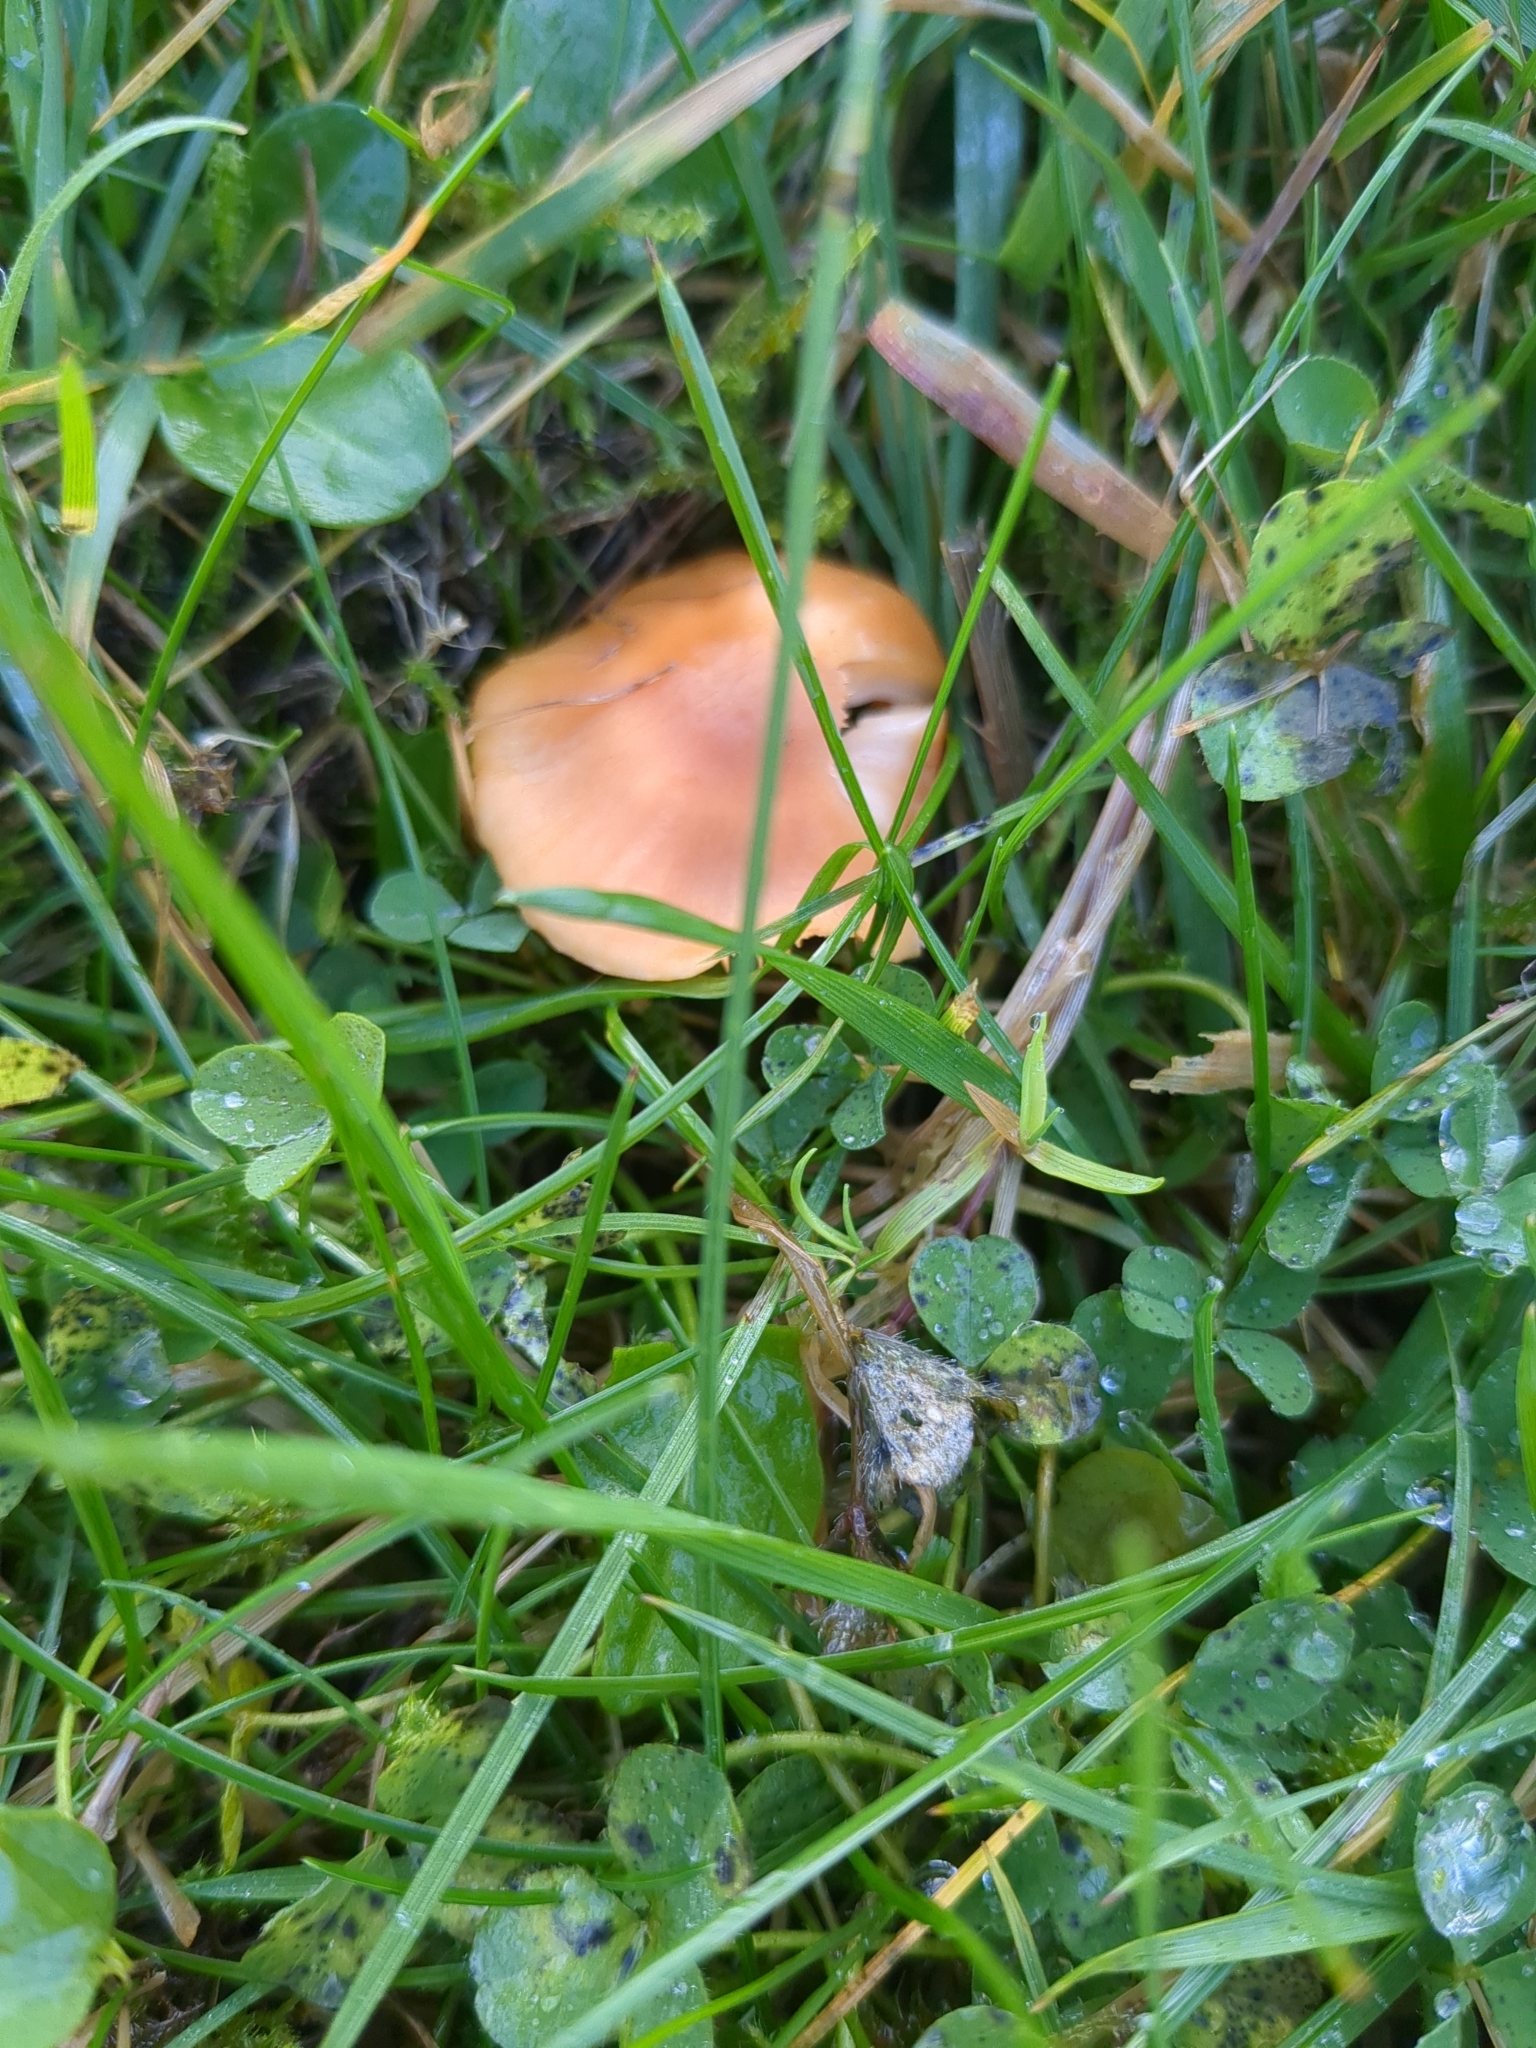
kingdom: Fungi
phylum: Basidiomycota
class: Agaricomycetes
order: Agaricales
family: Hygrophoraceae
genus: Cuphophyllus
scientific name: Cuphophyllus pratensis
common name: Meadow waxcap
